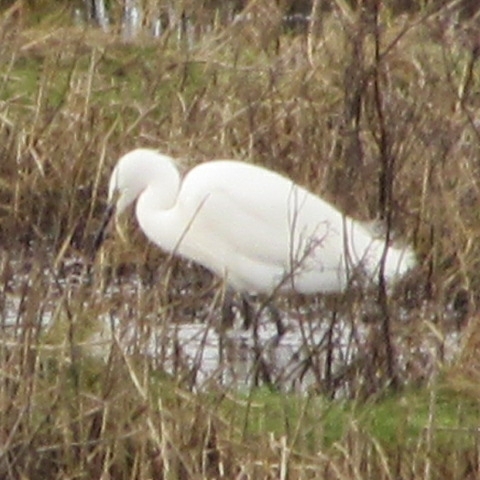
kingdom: Animalia
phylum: Chordata
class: Aves
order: Pelecaniformes
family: Ardeidae
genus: Egretta
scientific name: Egretta garzetta
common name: Little egret
